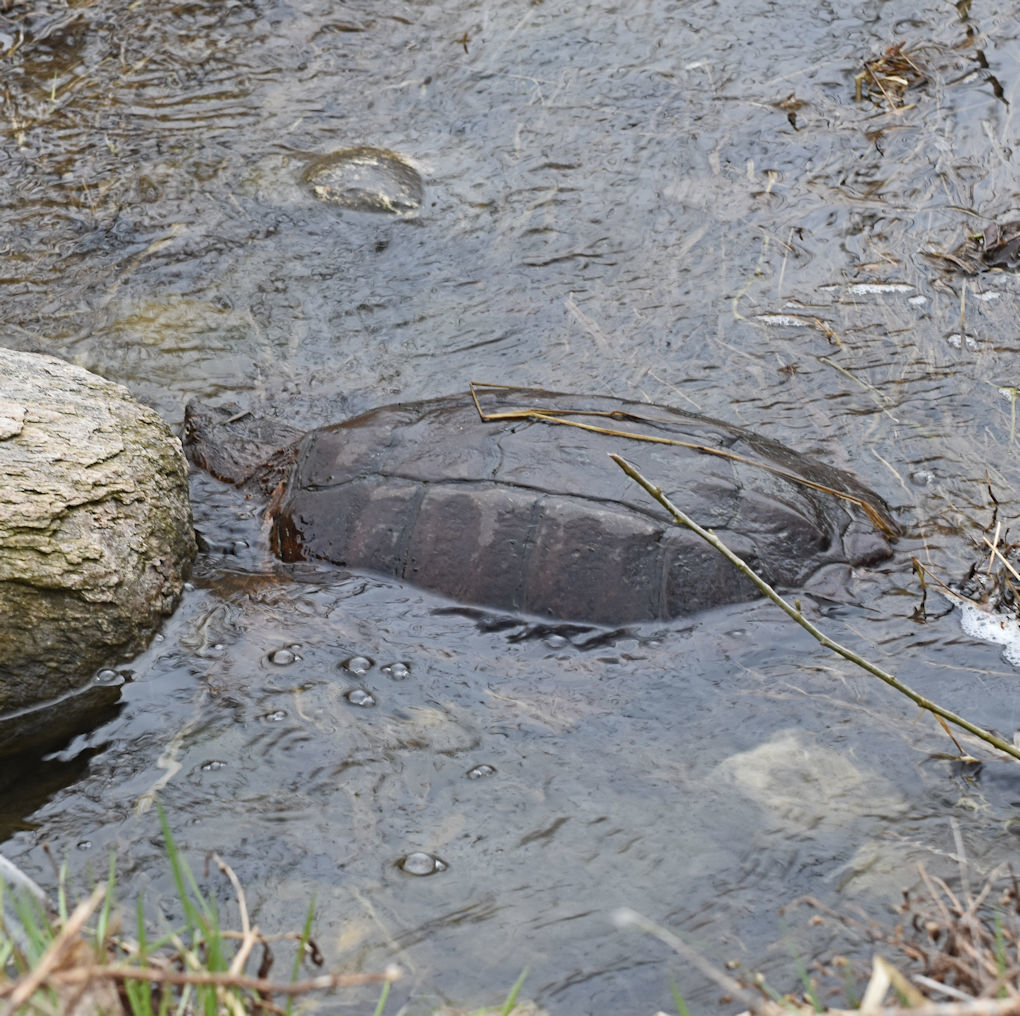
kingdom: Animalia
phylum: Chordata
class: Testudines
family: Chelydridae
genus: Chelydra
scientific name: Chelydra serpentina
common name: Common snapping turtle
